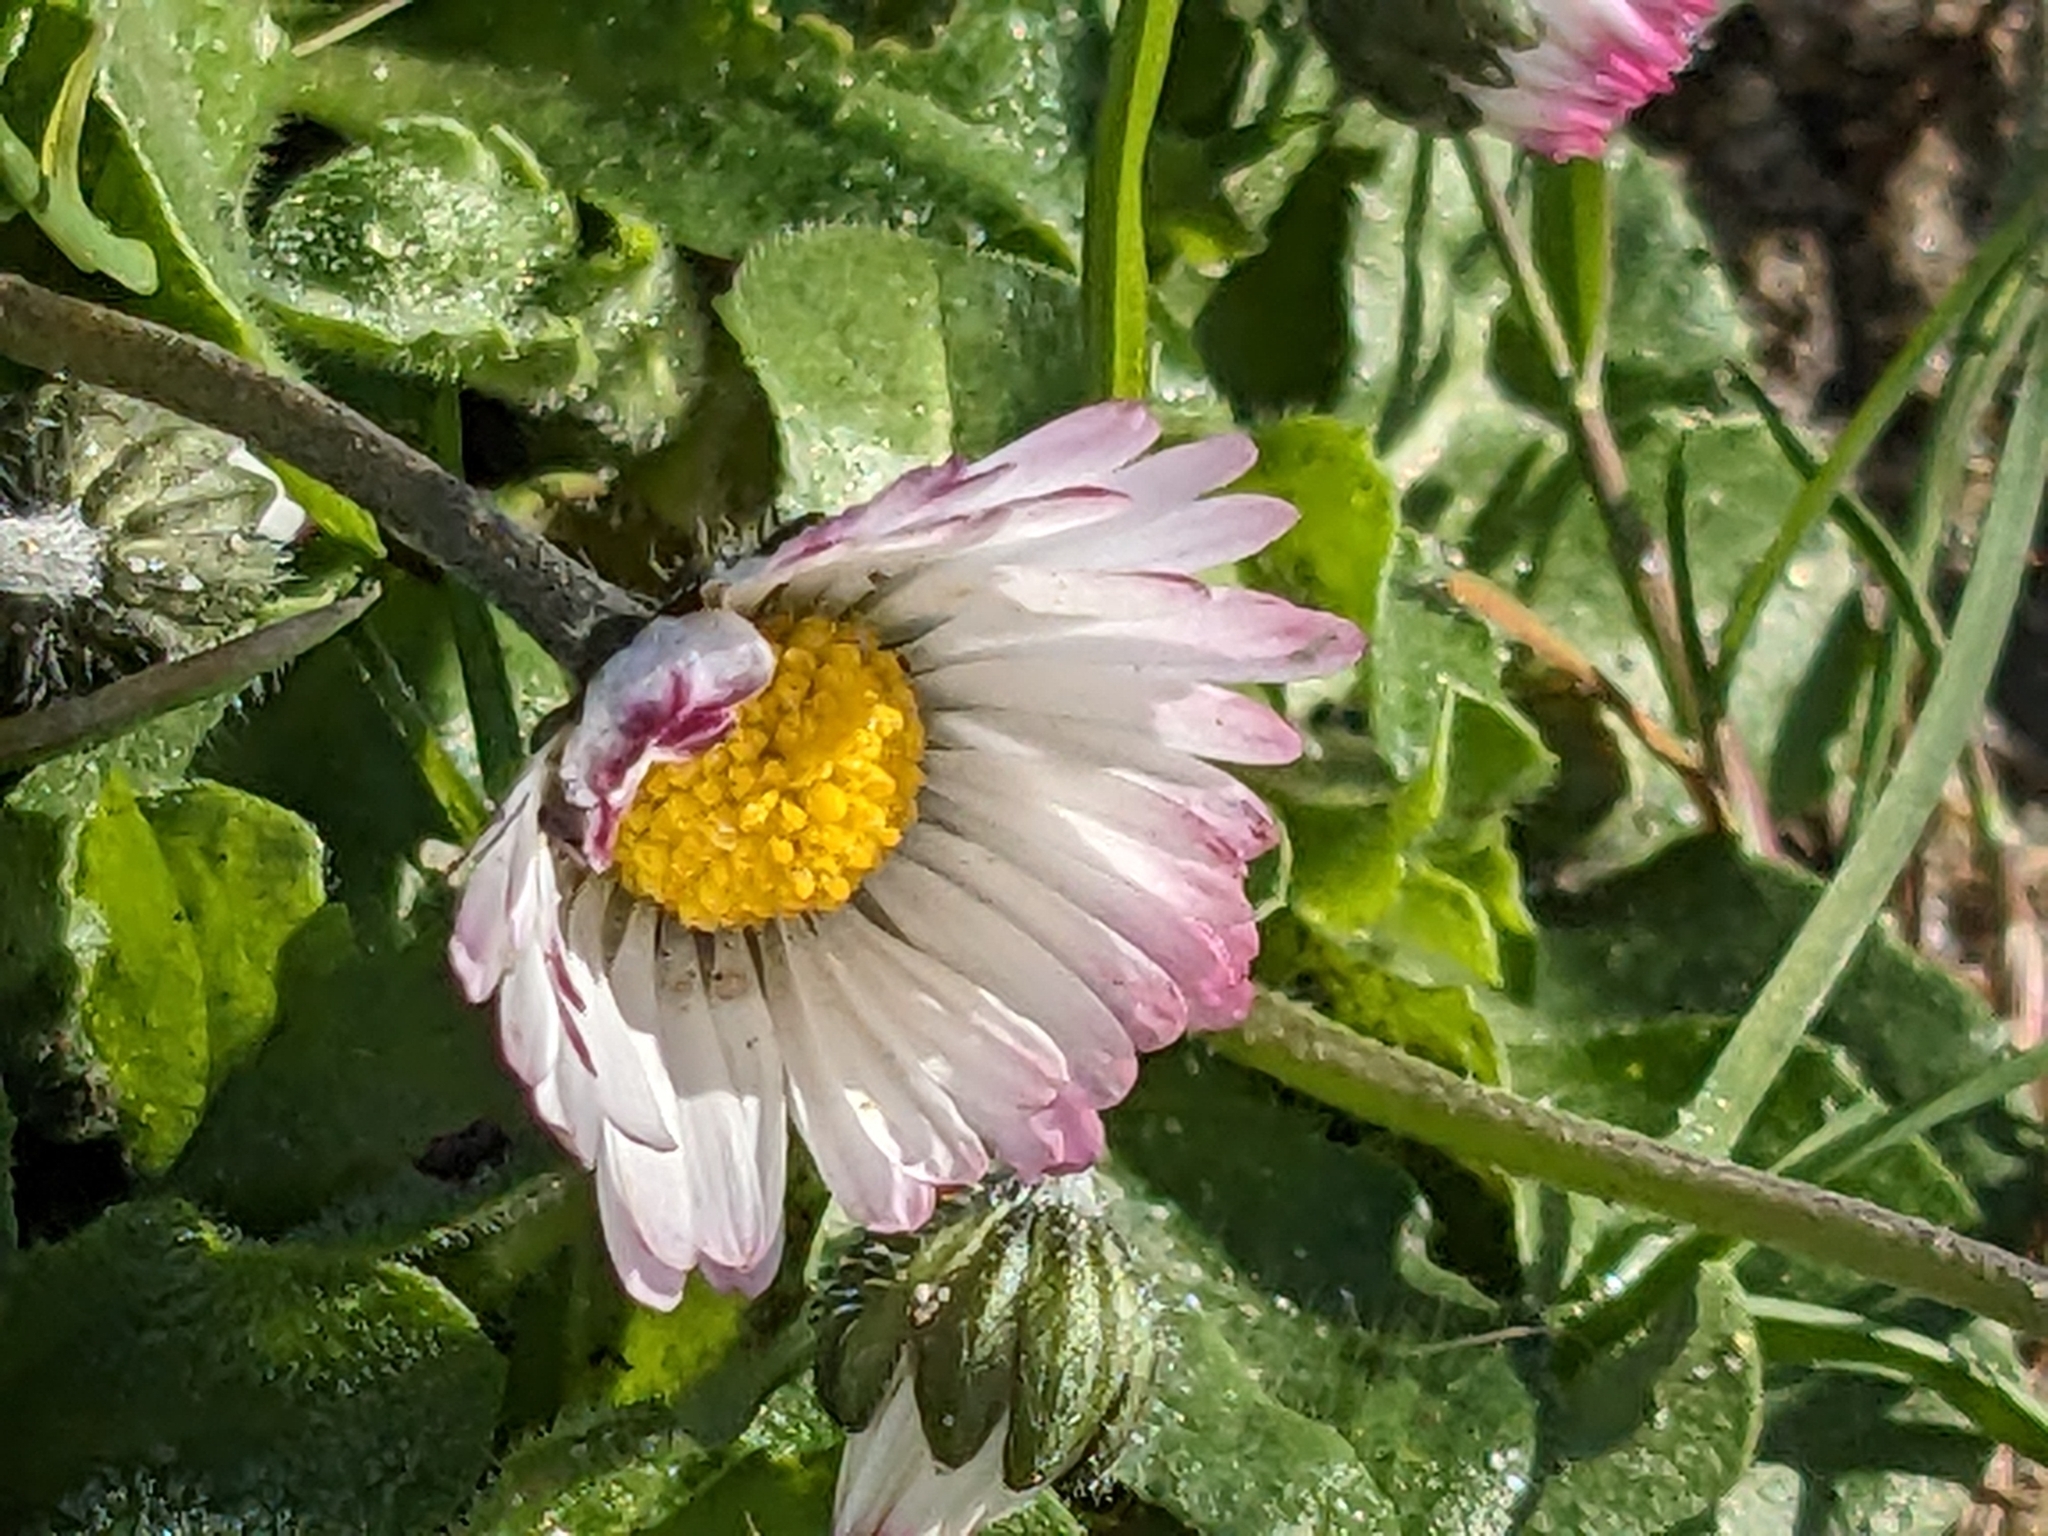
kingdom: Plantae
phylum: Tracheophyta
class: Magnoliopsida
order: Asterales
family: Asteraceae
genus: Bellis
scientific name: Bellis perennis
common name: Lawndaisy
